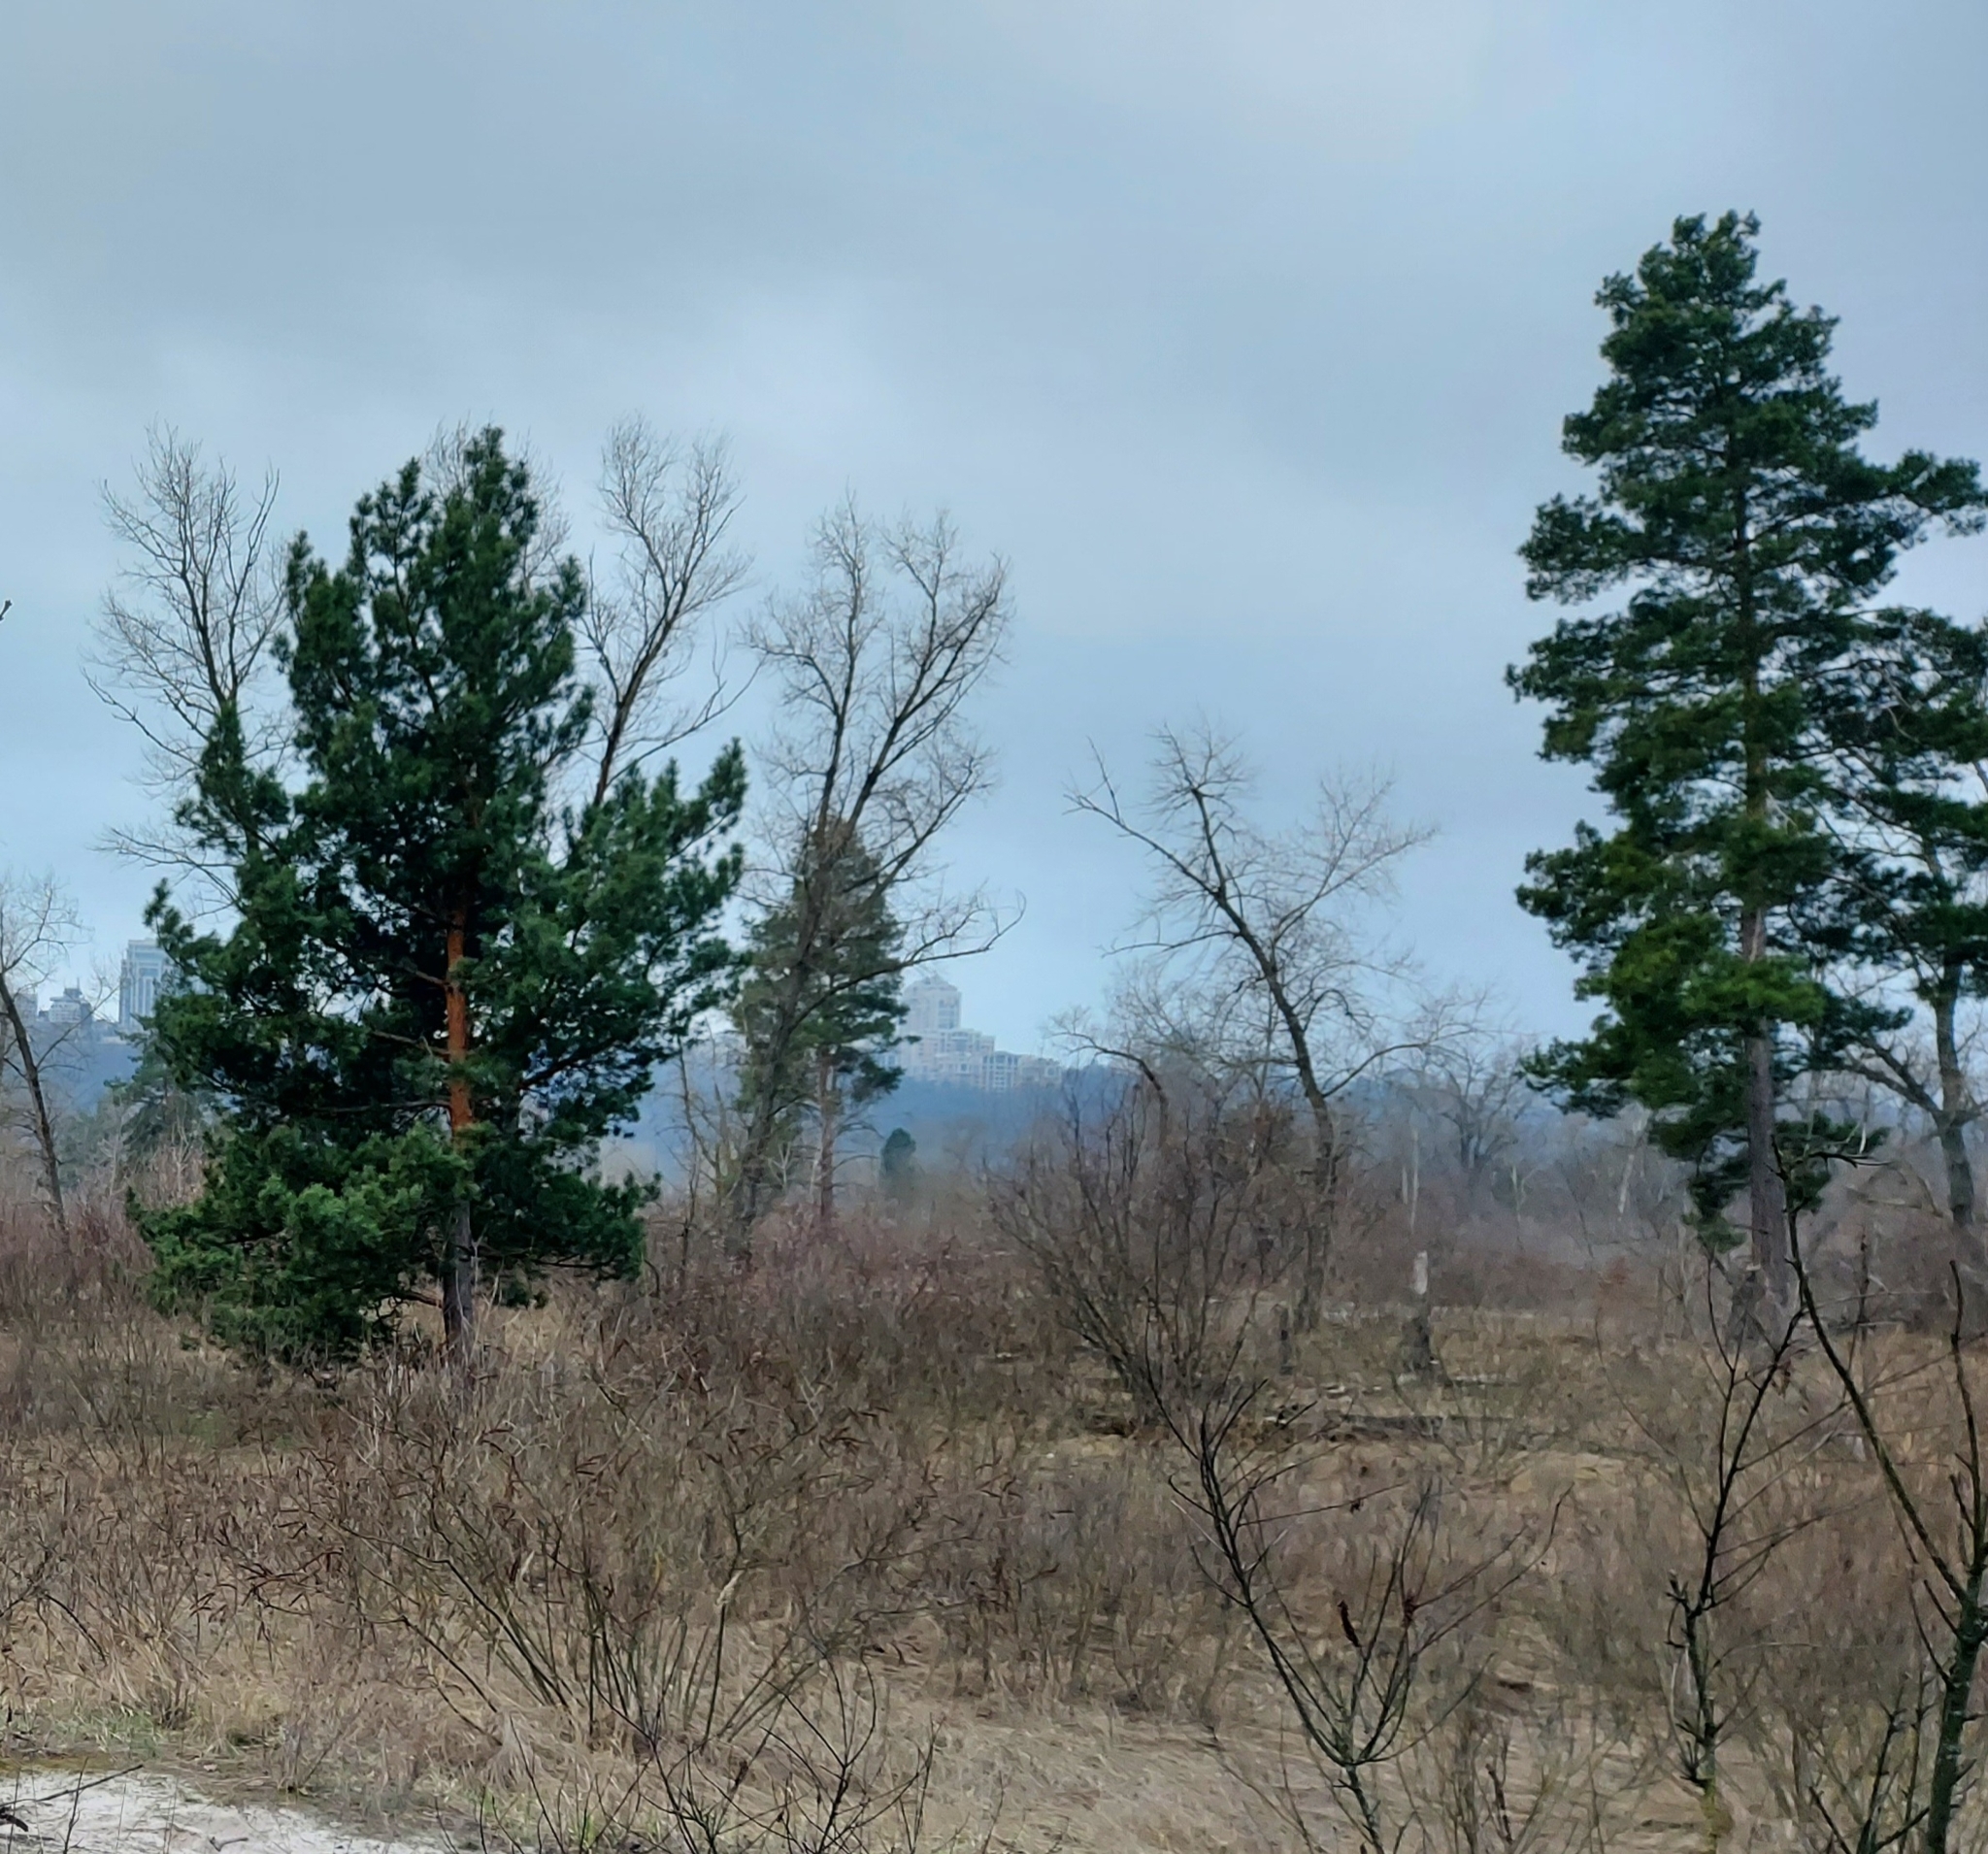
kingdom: Plantae
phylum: Tracheophyta
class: Pinopsida
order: Pinales
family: Pinaceae
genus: Pinus
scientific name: Pinus sylvestris
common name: Scots pine
